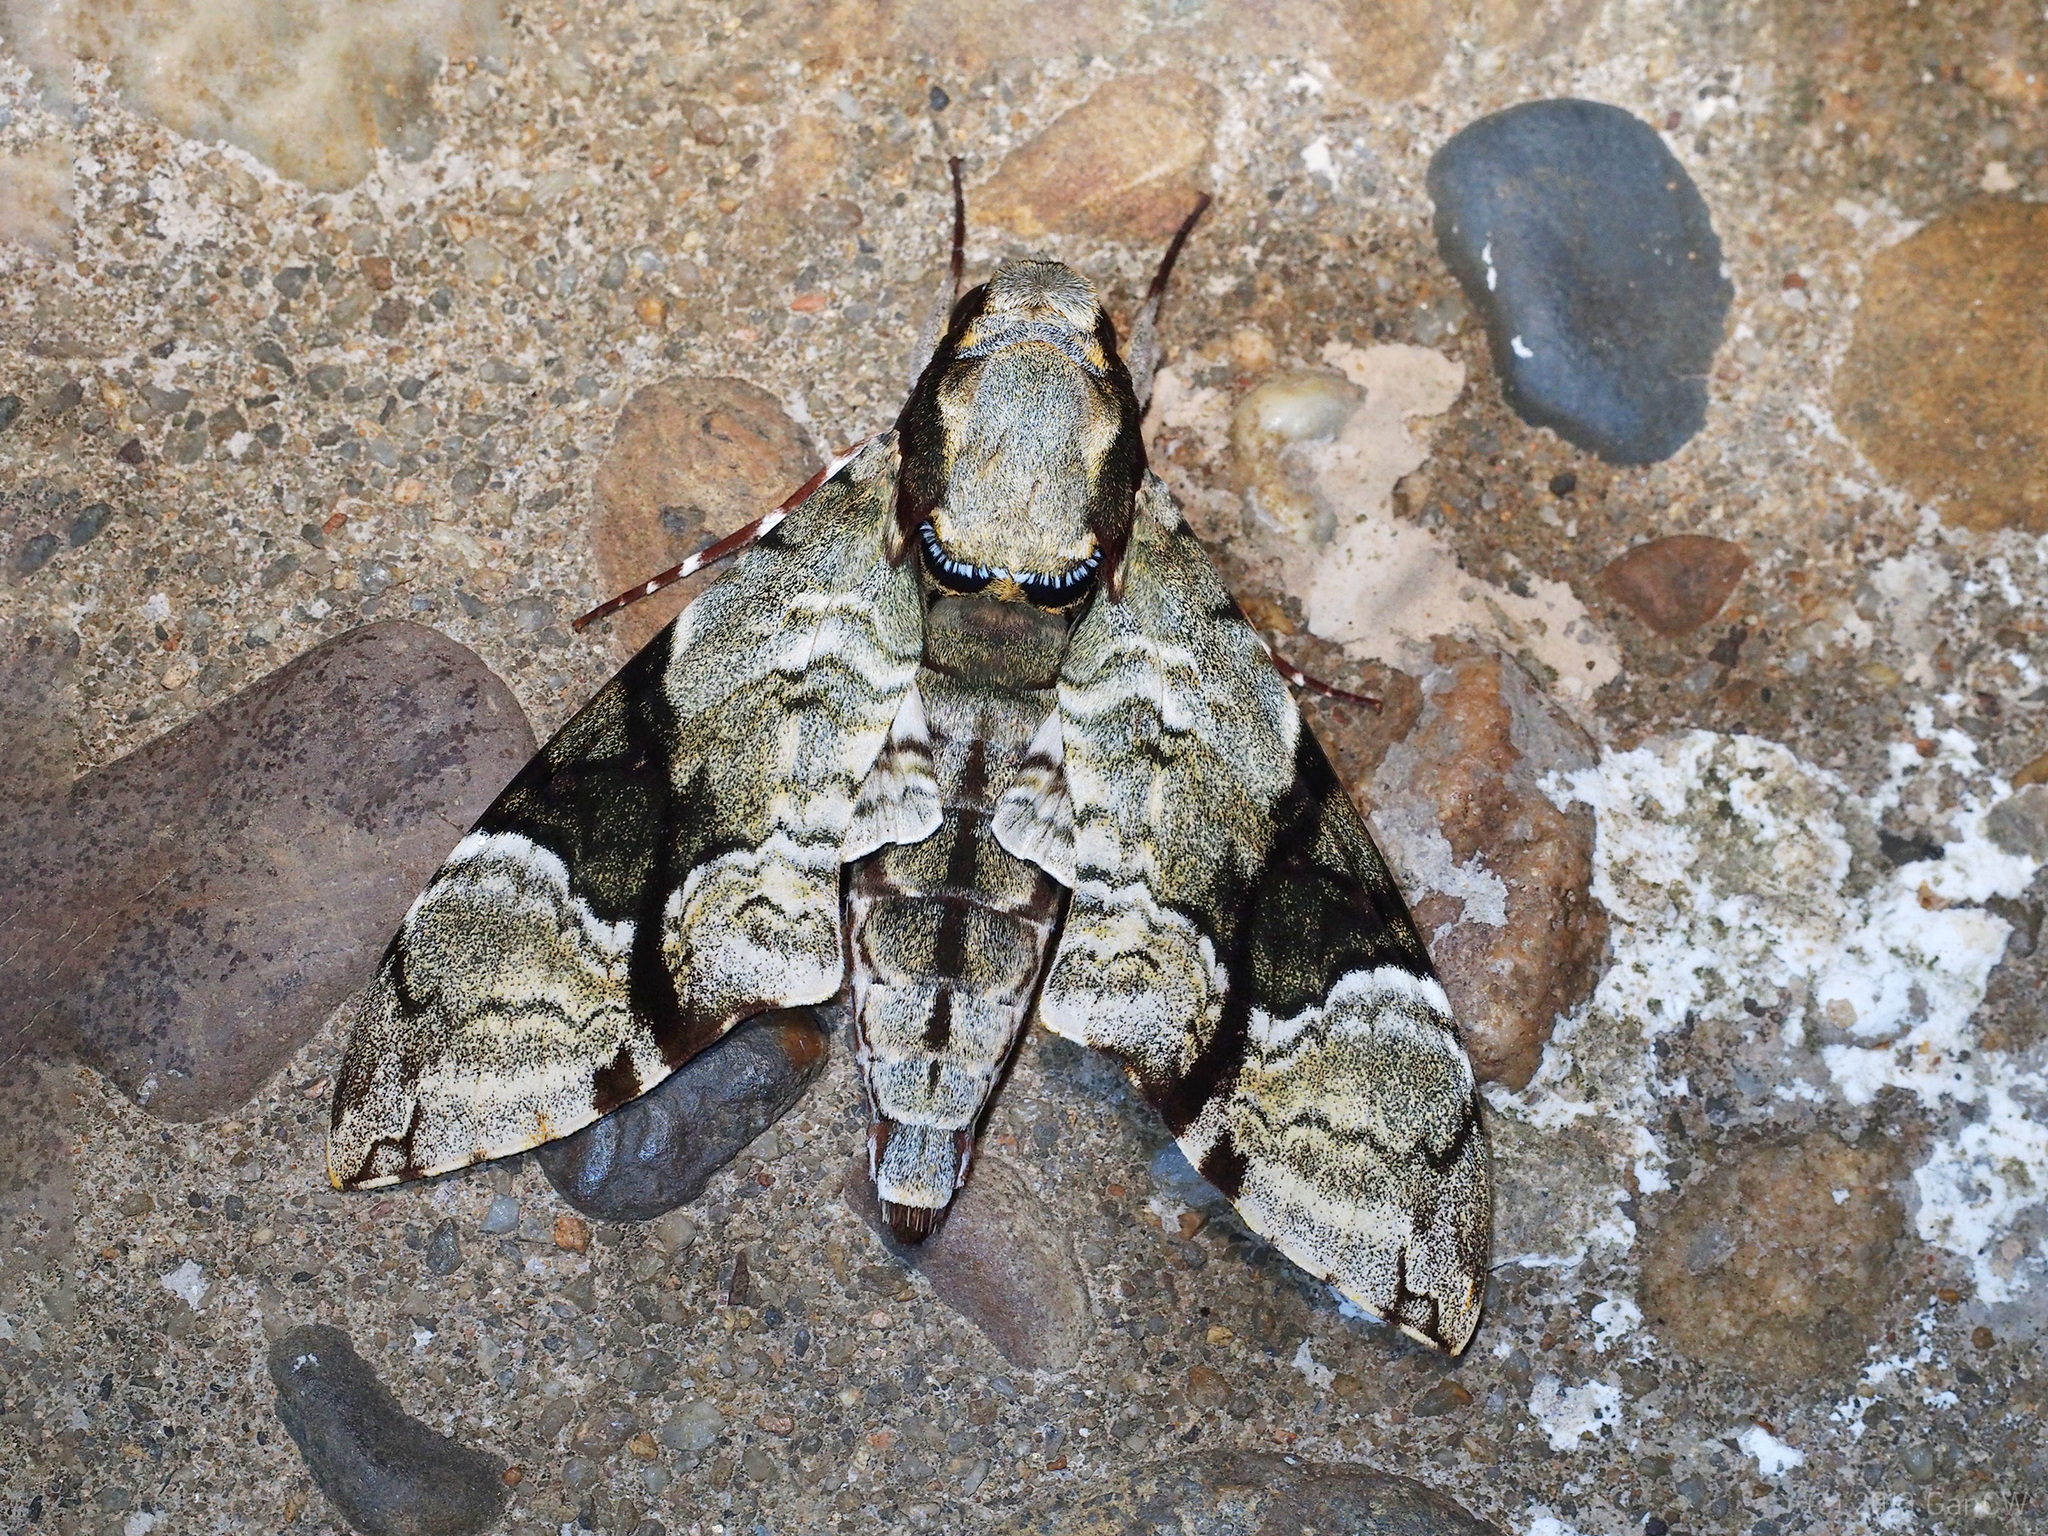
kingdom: Animalia
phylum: Arthropoda
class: Insecta
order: Lepidoptera
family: Sphingidae
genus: Megacorma
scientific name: Megacorma obliqua
